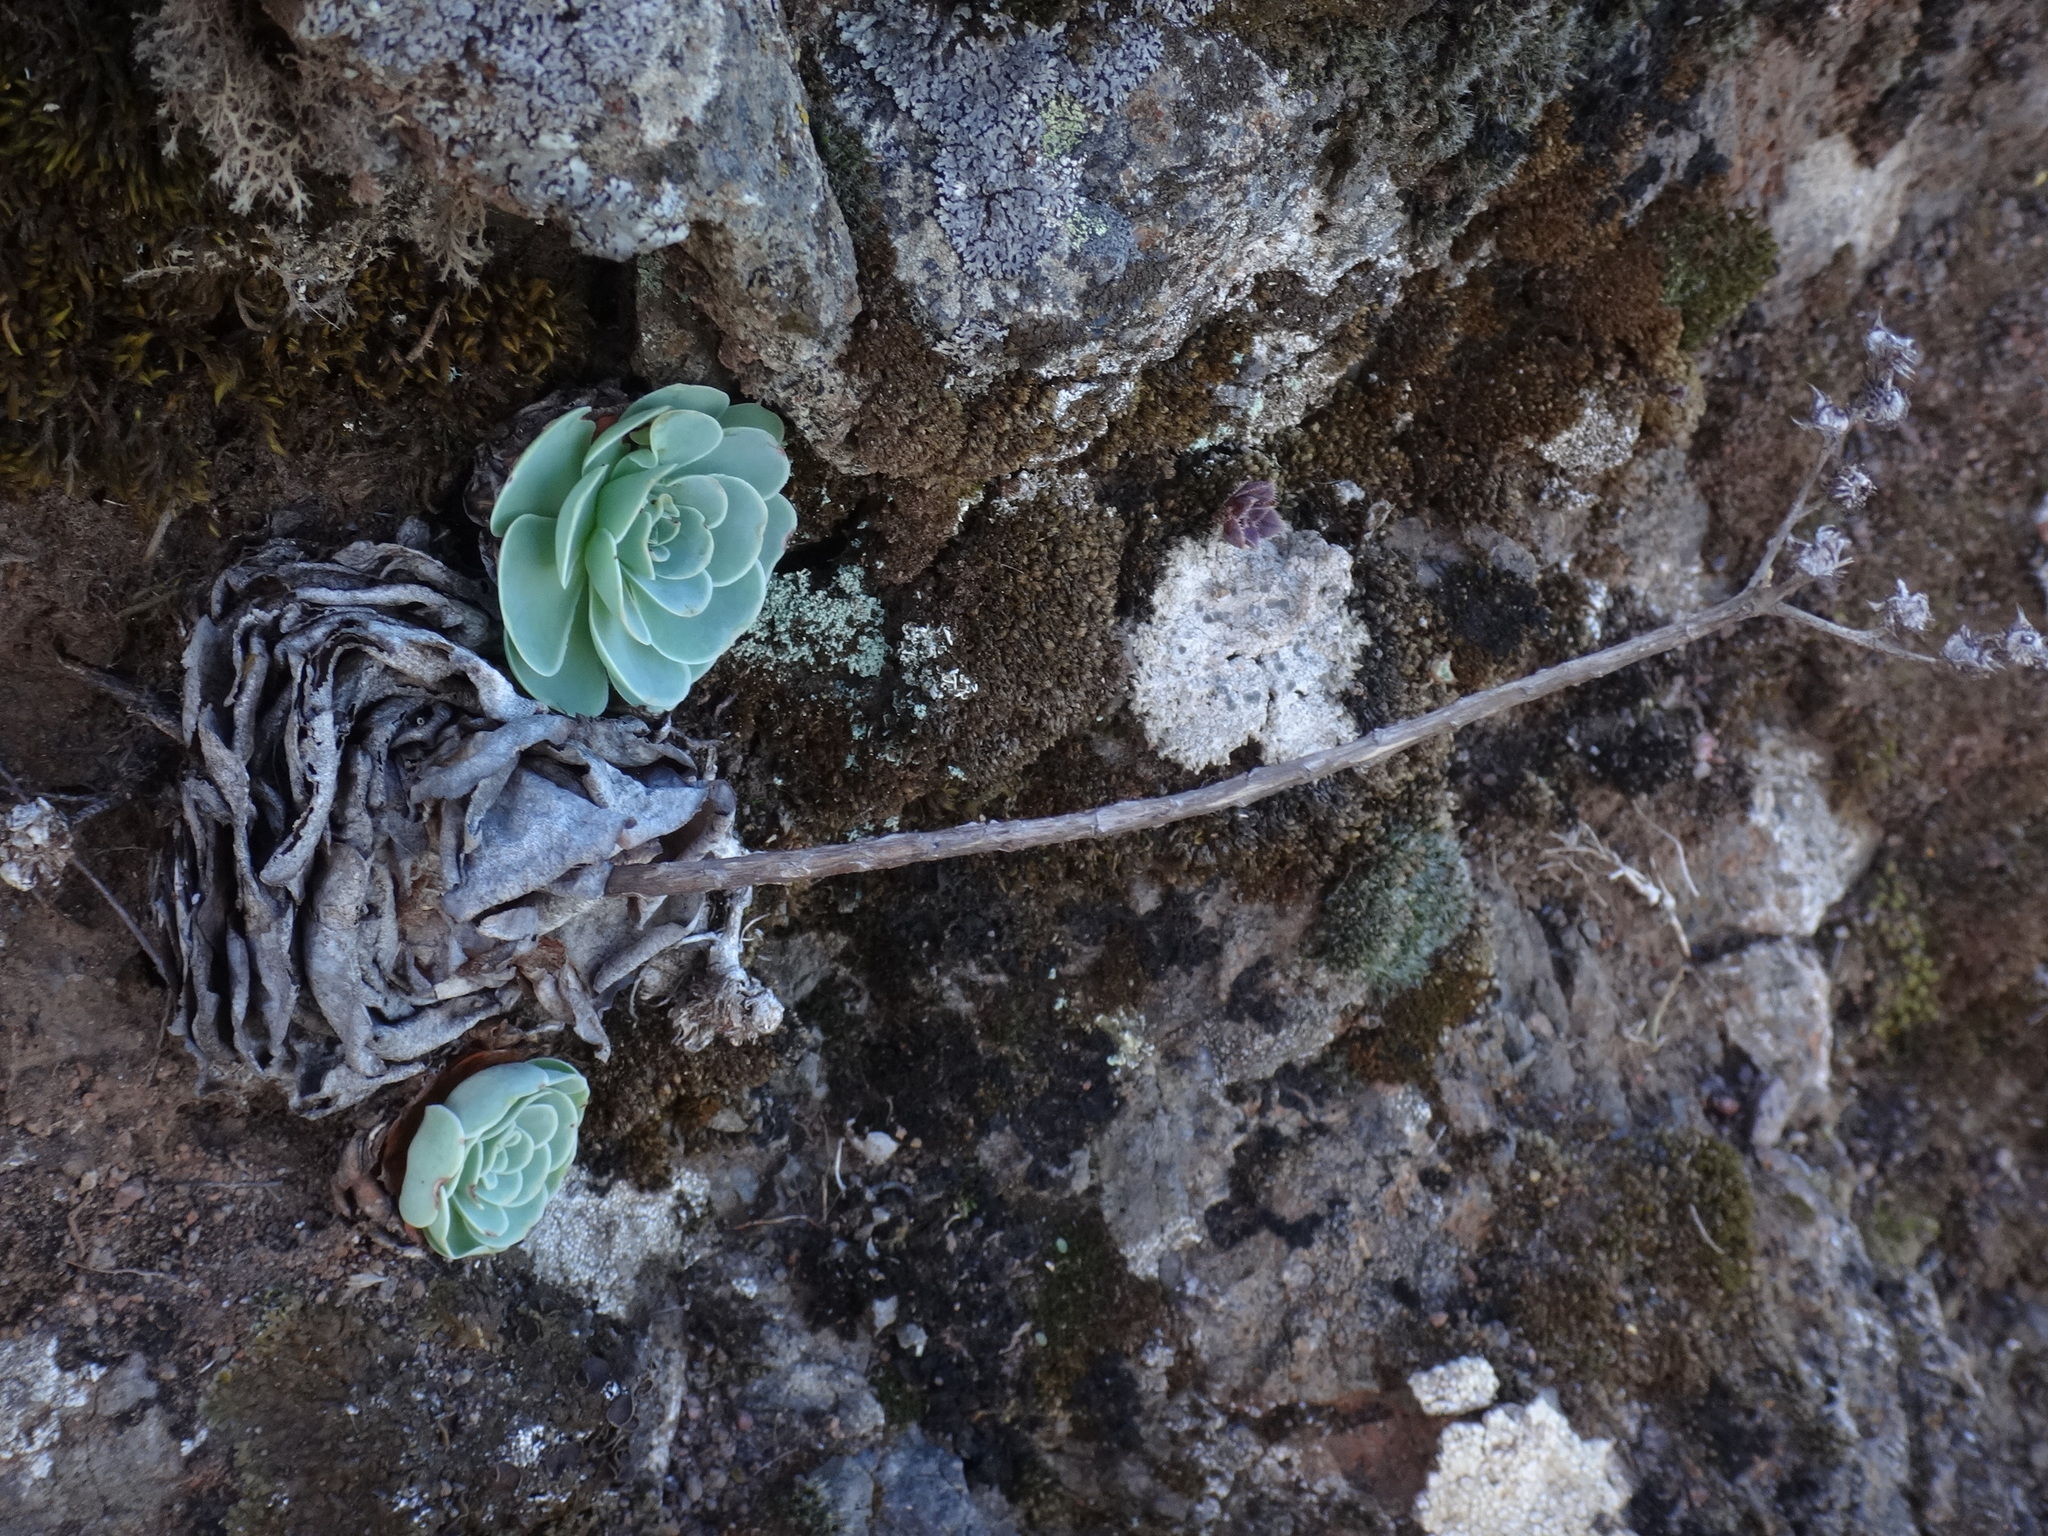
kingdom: Plantae
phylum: Tracheophyta
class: Magnoliopsida
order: Saxifragales
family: Crassulaceae
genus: Aeonium
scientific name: Aeonium aureum
